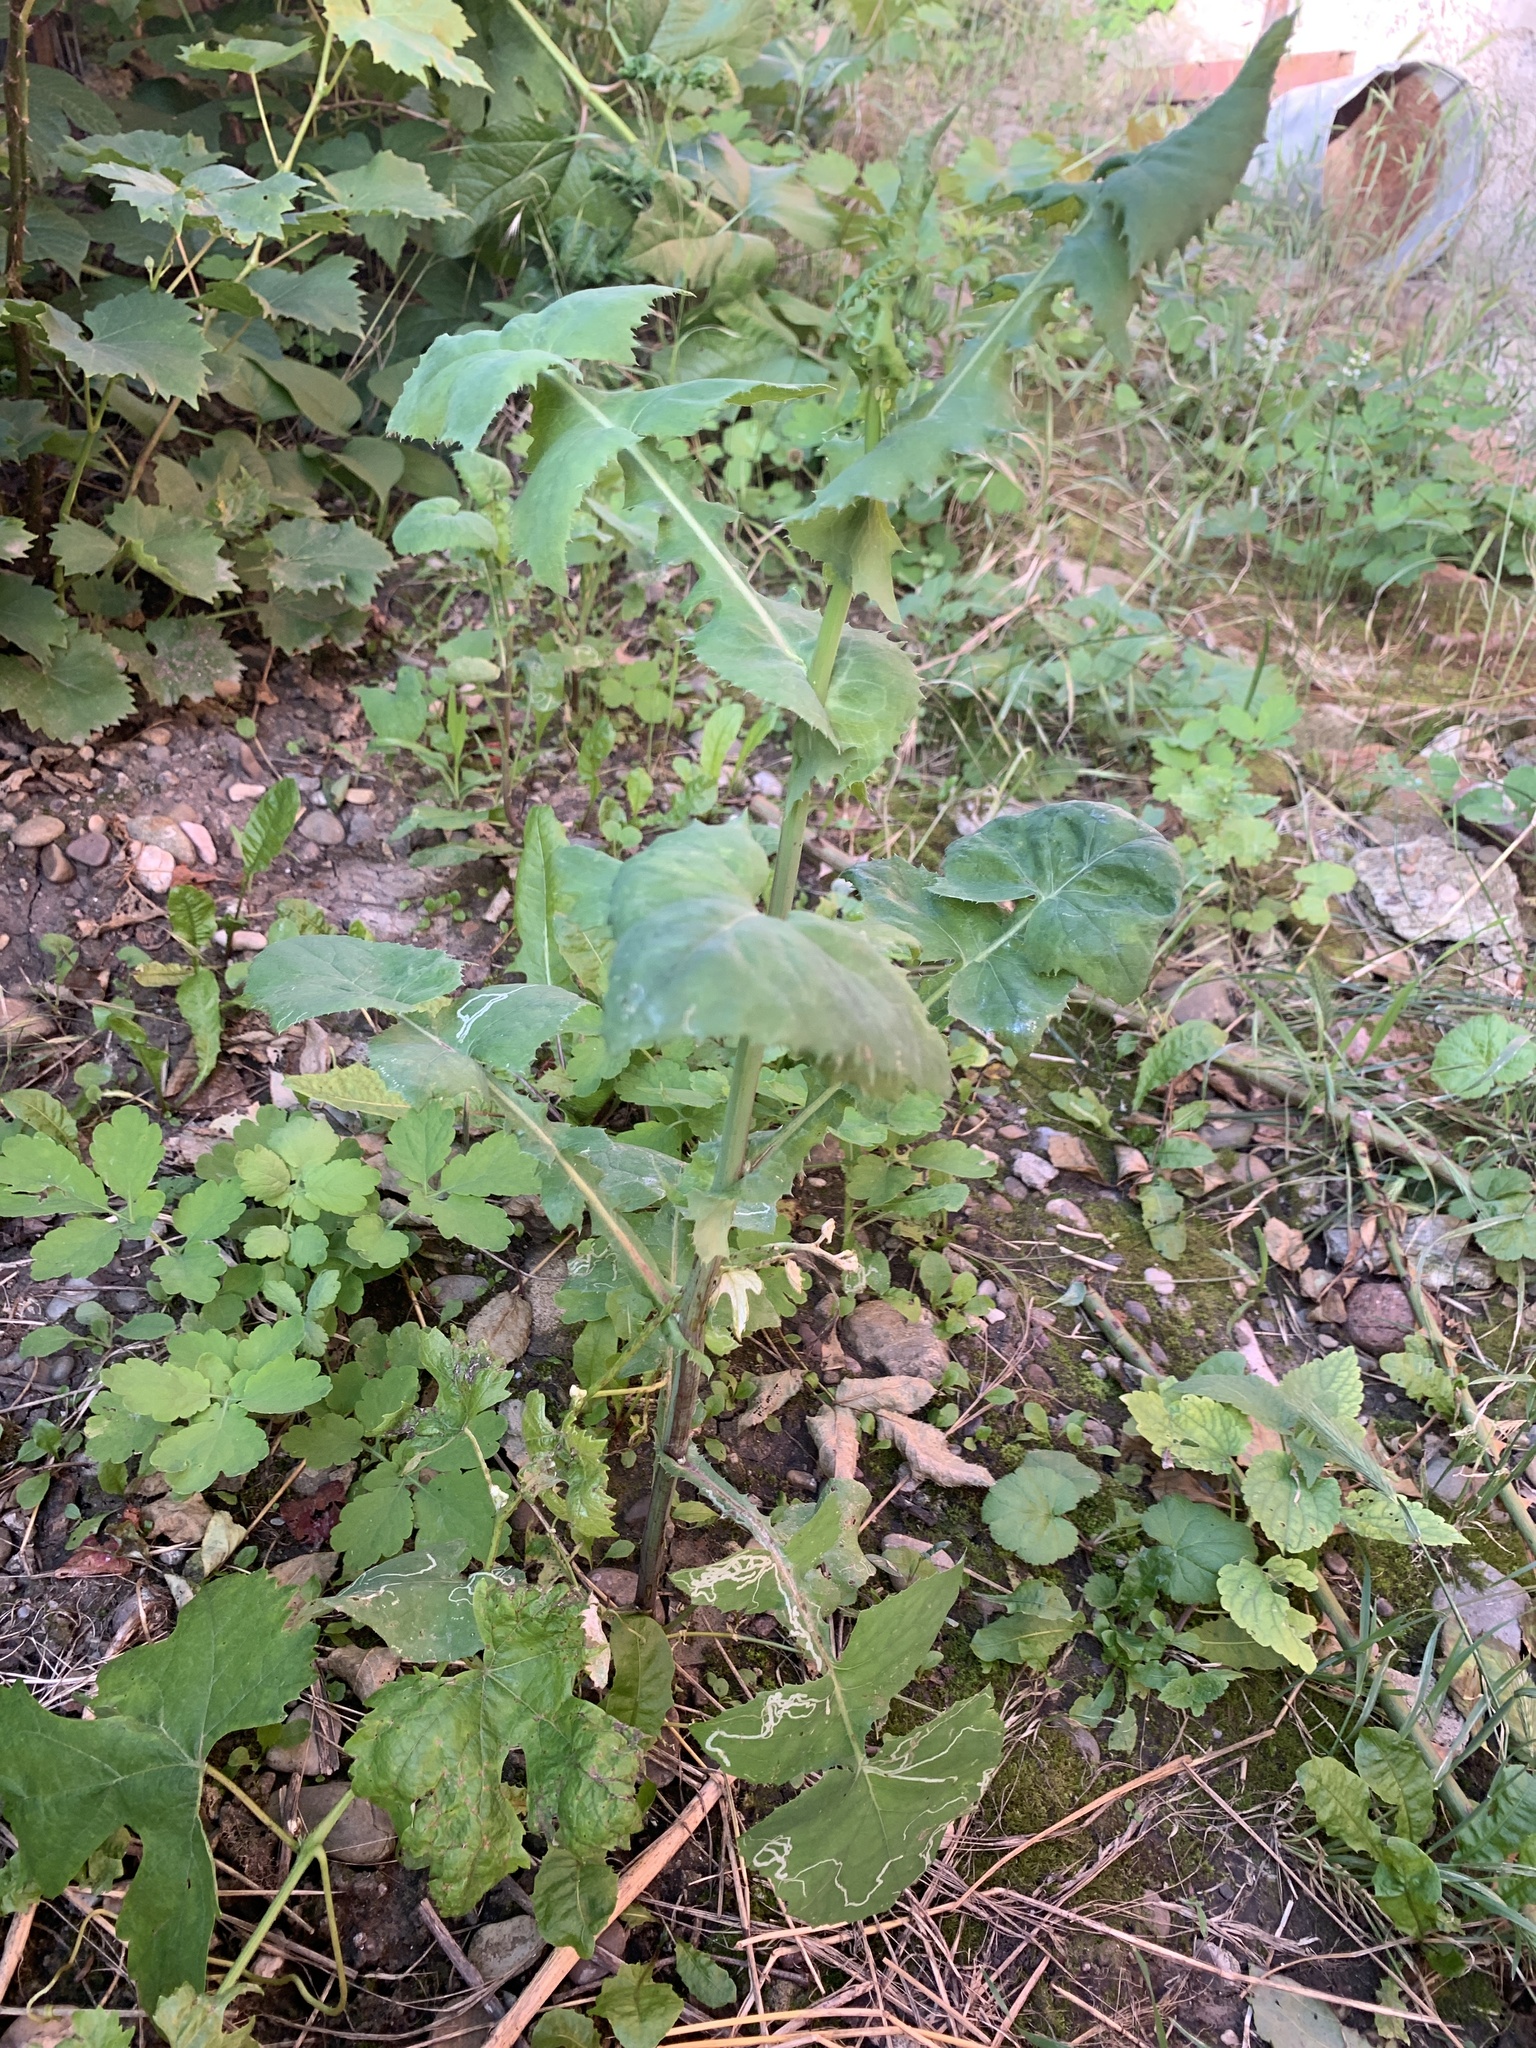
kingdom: Plantae
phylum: Tracheophyta
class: Magnoliopsida
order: Asterales
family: Asteraceae
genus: Sonchus
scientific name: Sonchus oleraceus
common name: Common sowthistle
